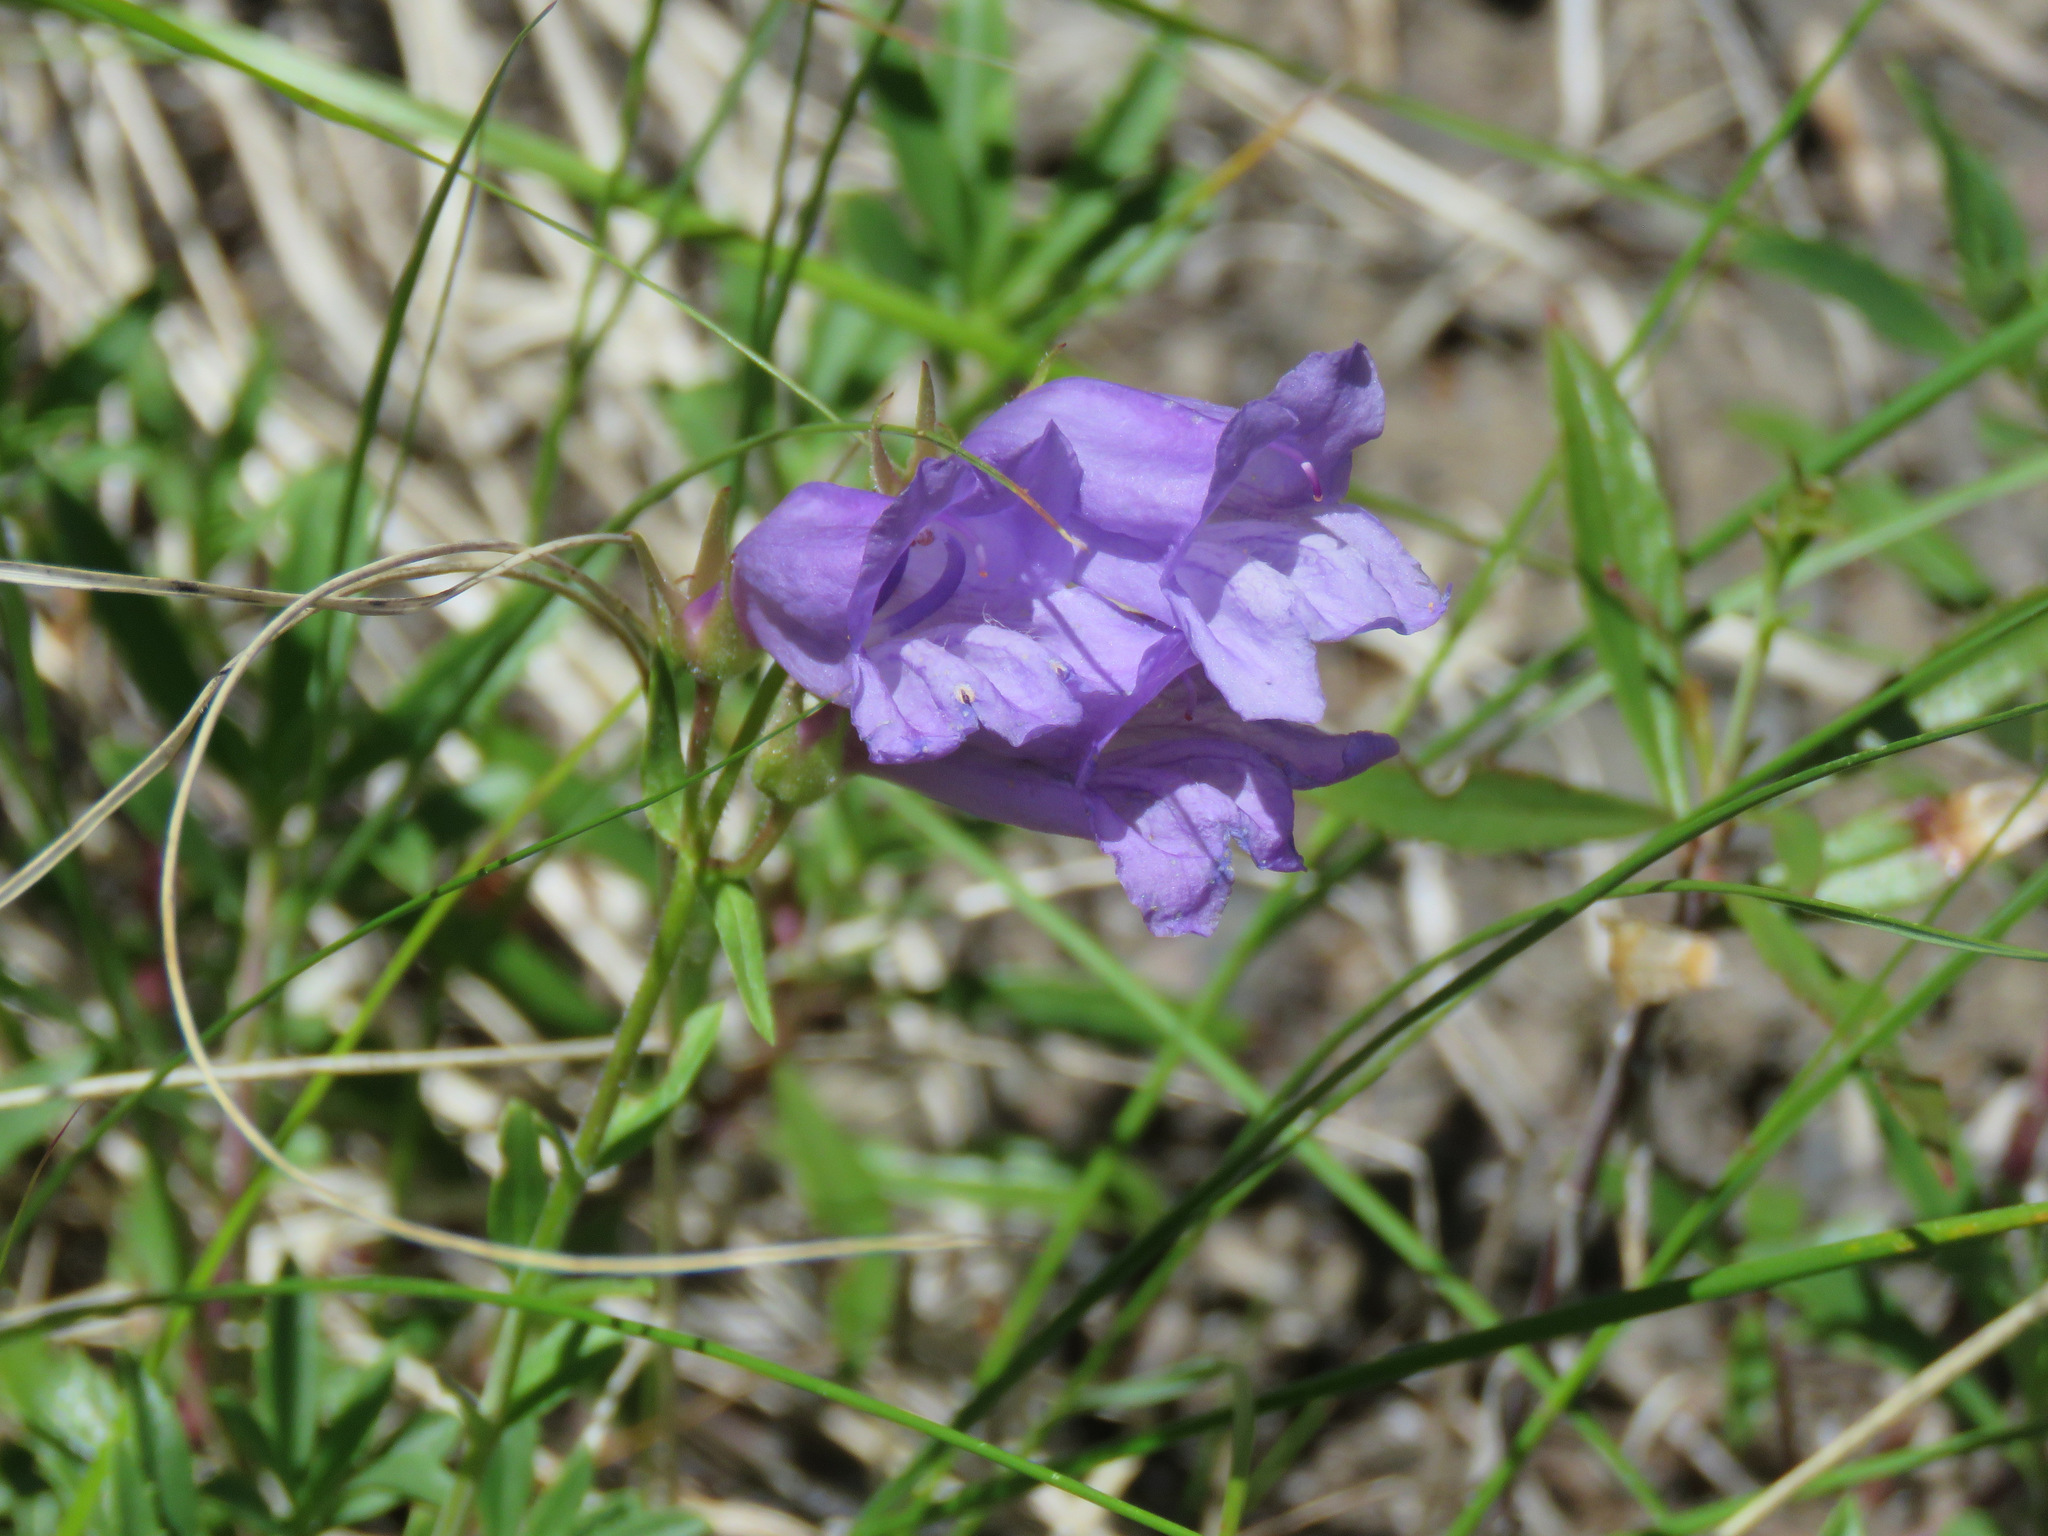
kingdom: Plantae
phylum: Tracheophyta
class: Magnoliopsida
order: Lamiales
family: Plantaginaceae
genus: Penstemon
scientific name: Penstemon fruticosus
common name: Bush penstemon
